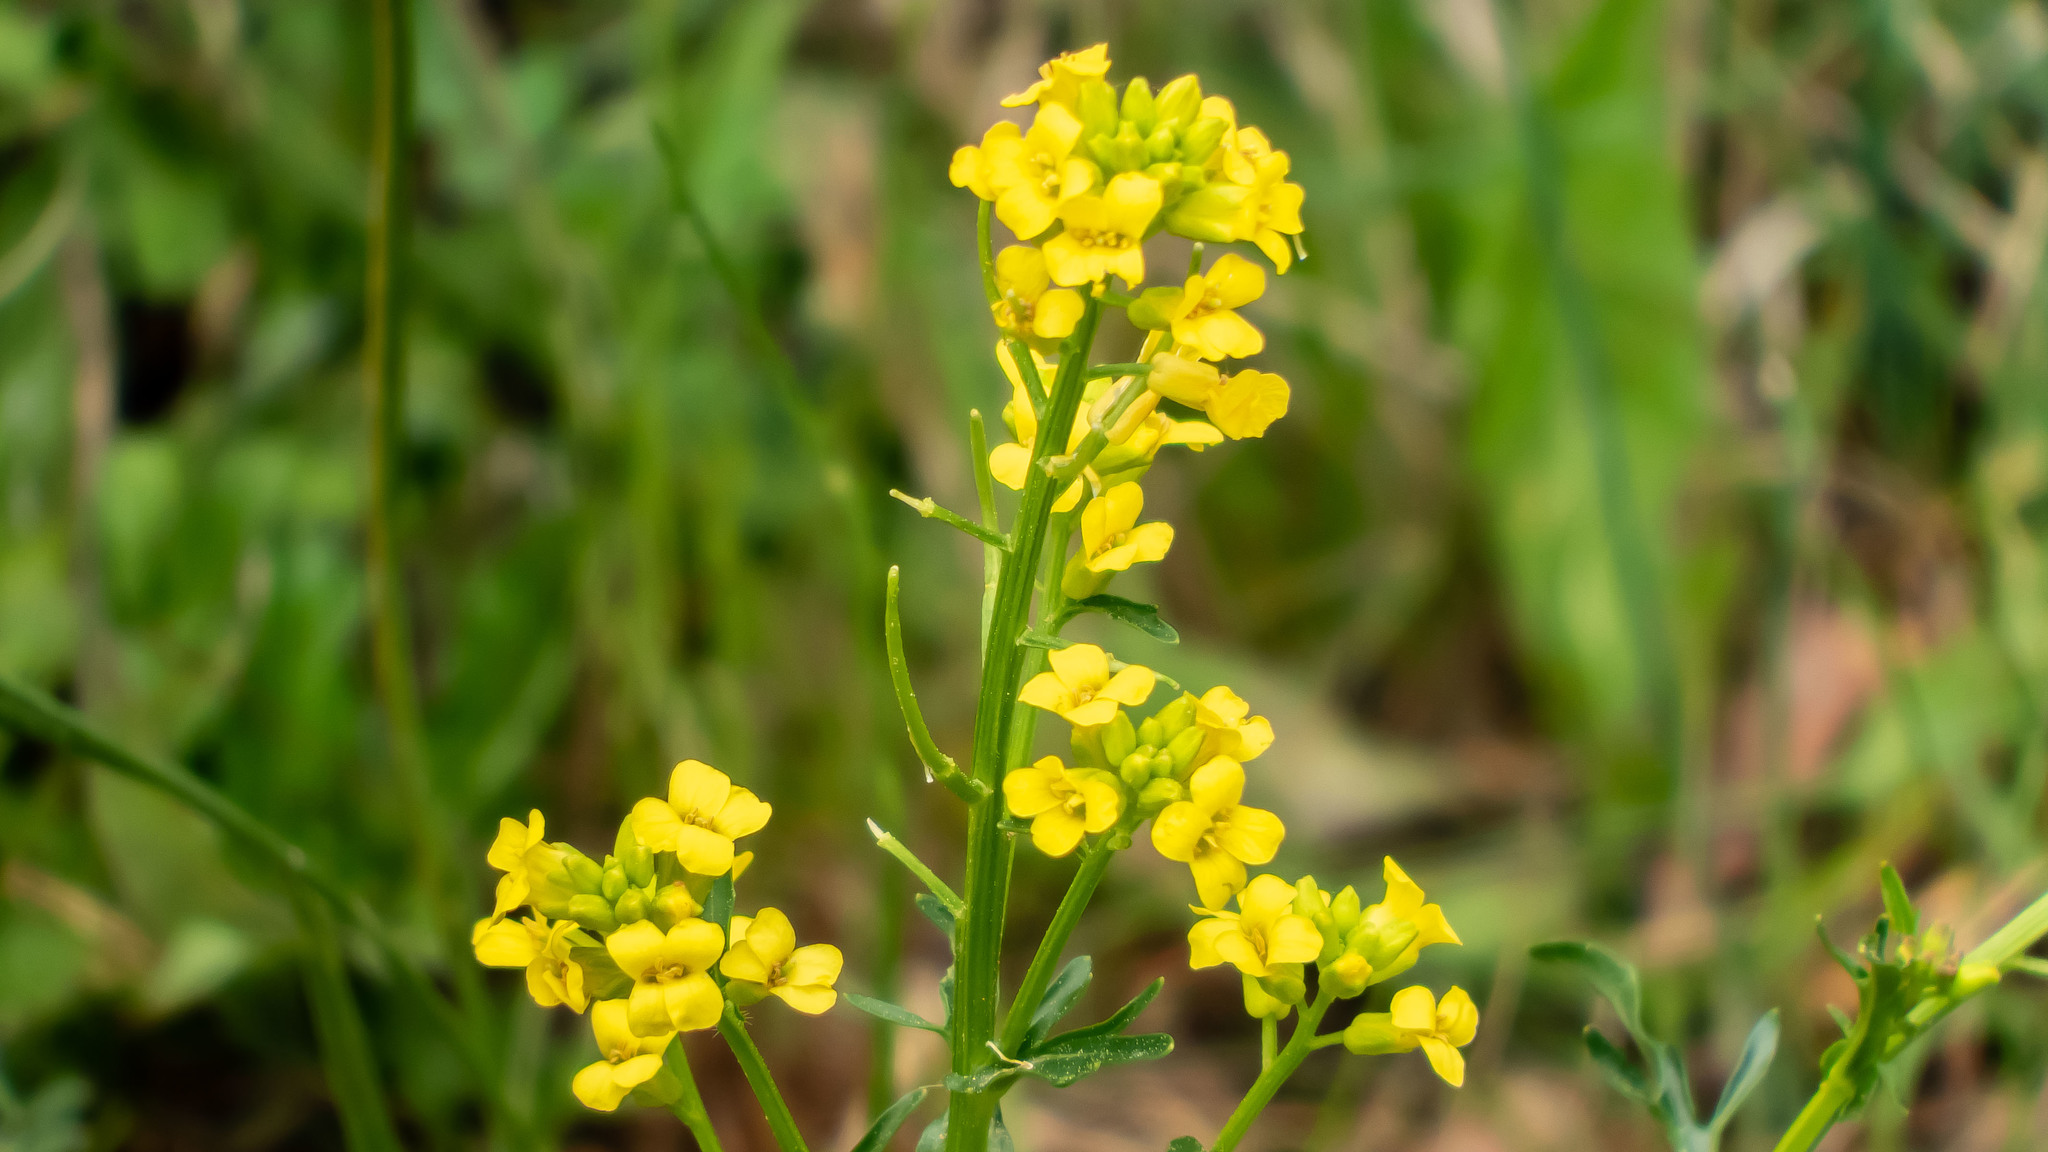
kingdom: Plantae
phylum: Tracheophyta
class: Magnoliopsida
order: Brassicales
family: Brassicaceae
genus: Barbarea
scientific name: Barbarea vulgaris
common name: Cressy-greens
